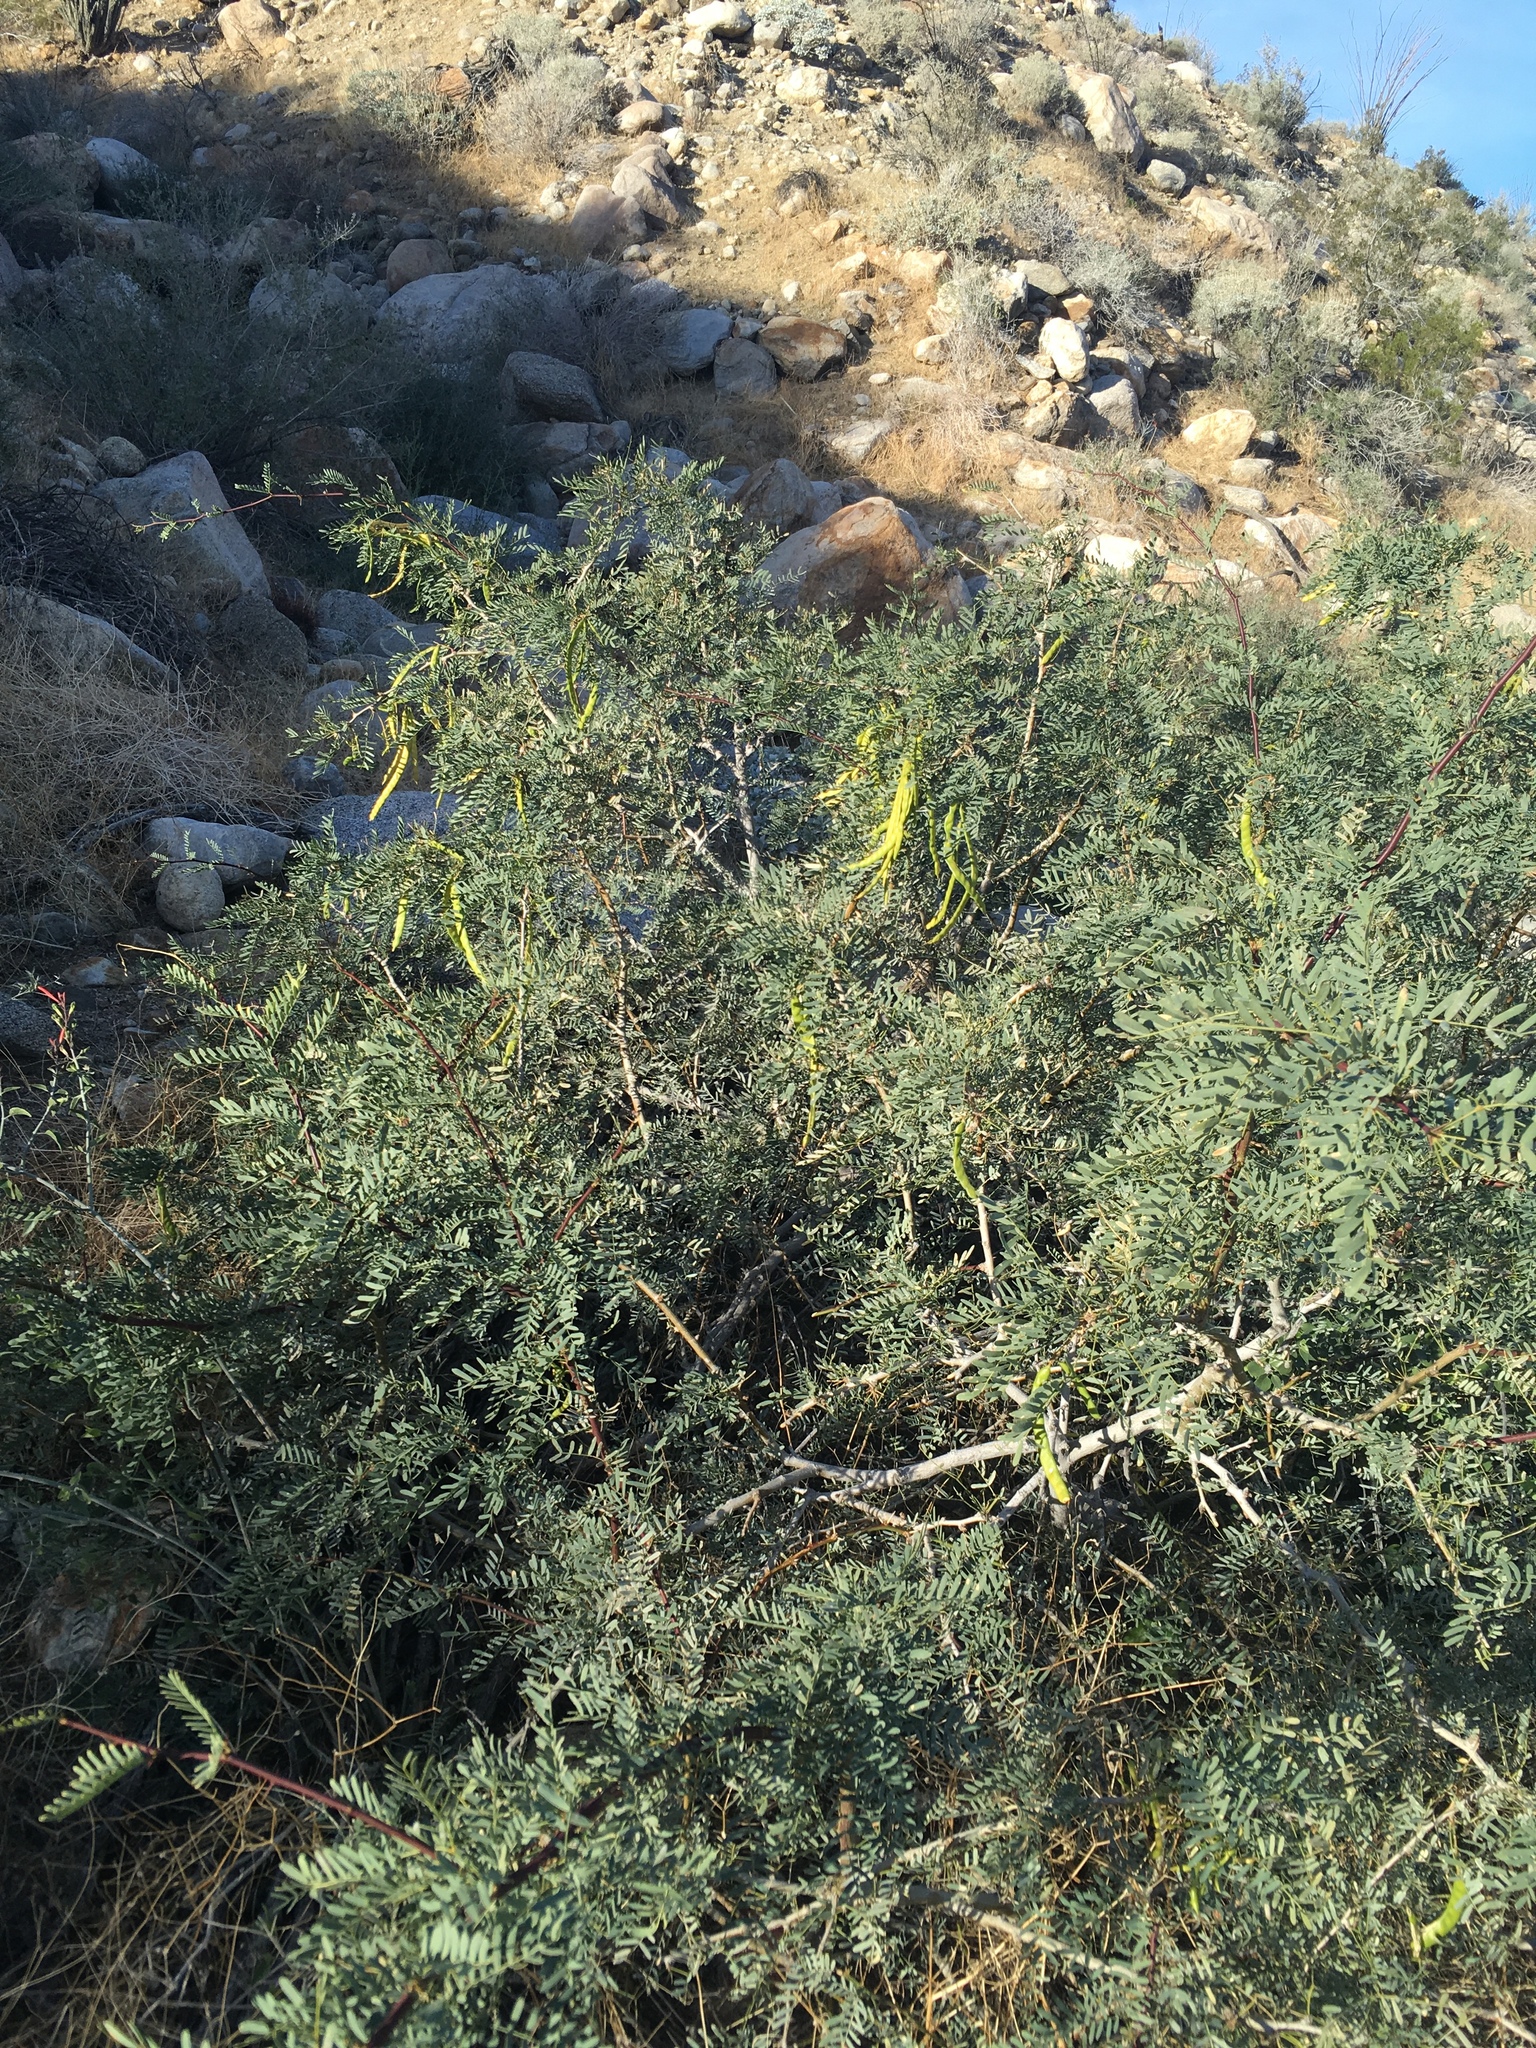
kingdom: Plantae
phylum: Tracheophyta
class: Magnoliopsida
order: Fabales
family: Fabaceae
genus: Prosopis
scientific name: Prosopis pubescens
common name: Screw-bean
